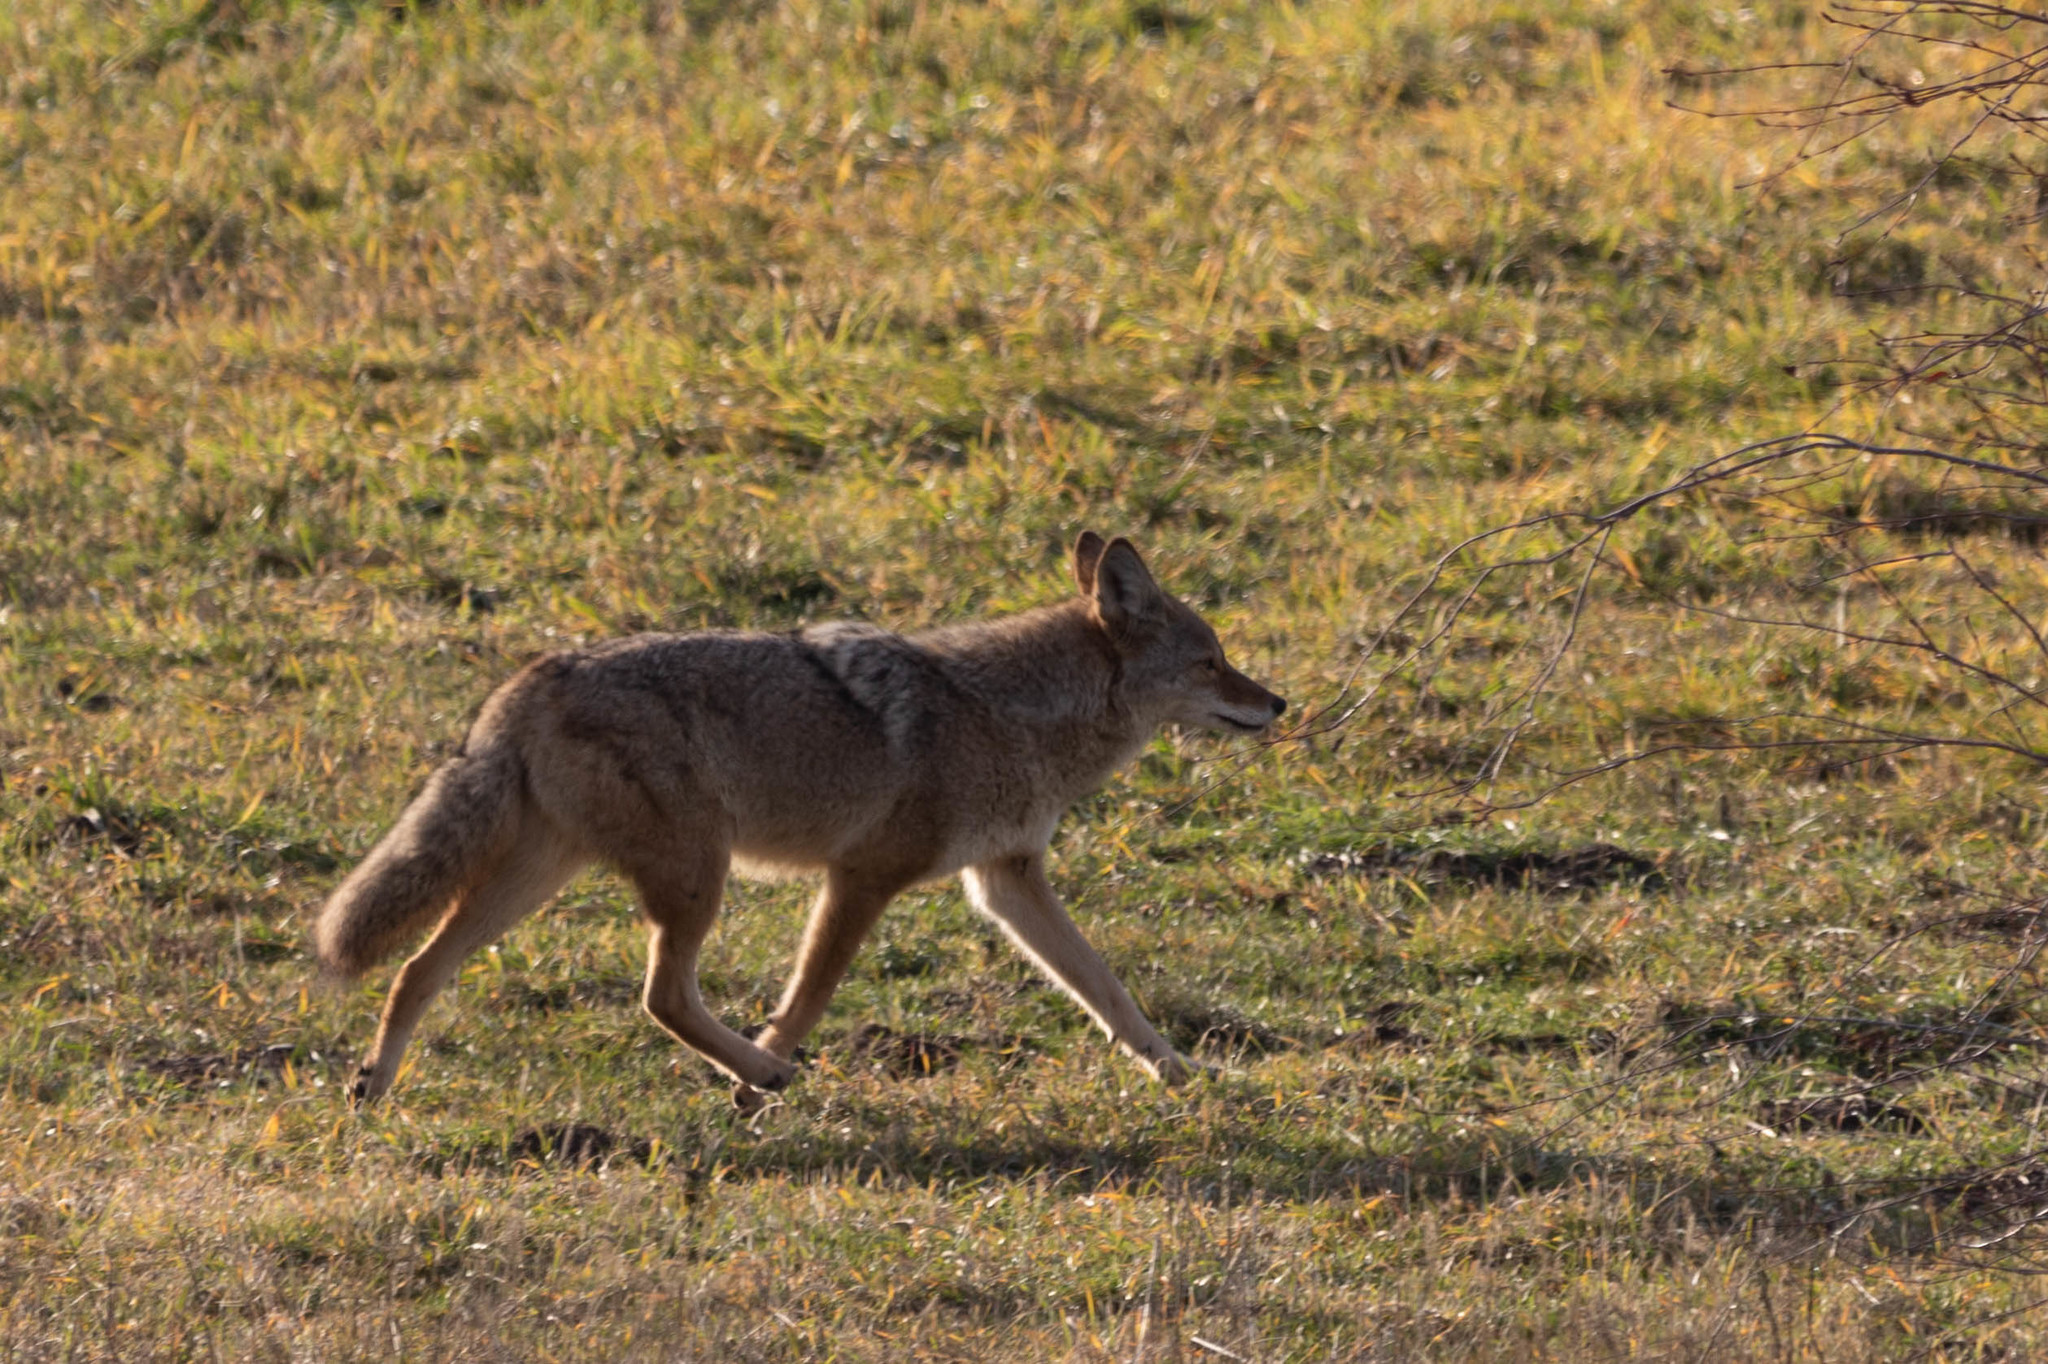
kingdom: Animalia
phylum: Chordata
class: Mammalia
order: Carnivora
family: Canidae
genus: Canis
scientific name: Canis latrans
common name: Coyote
